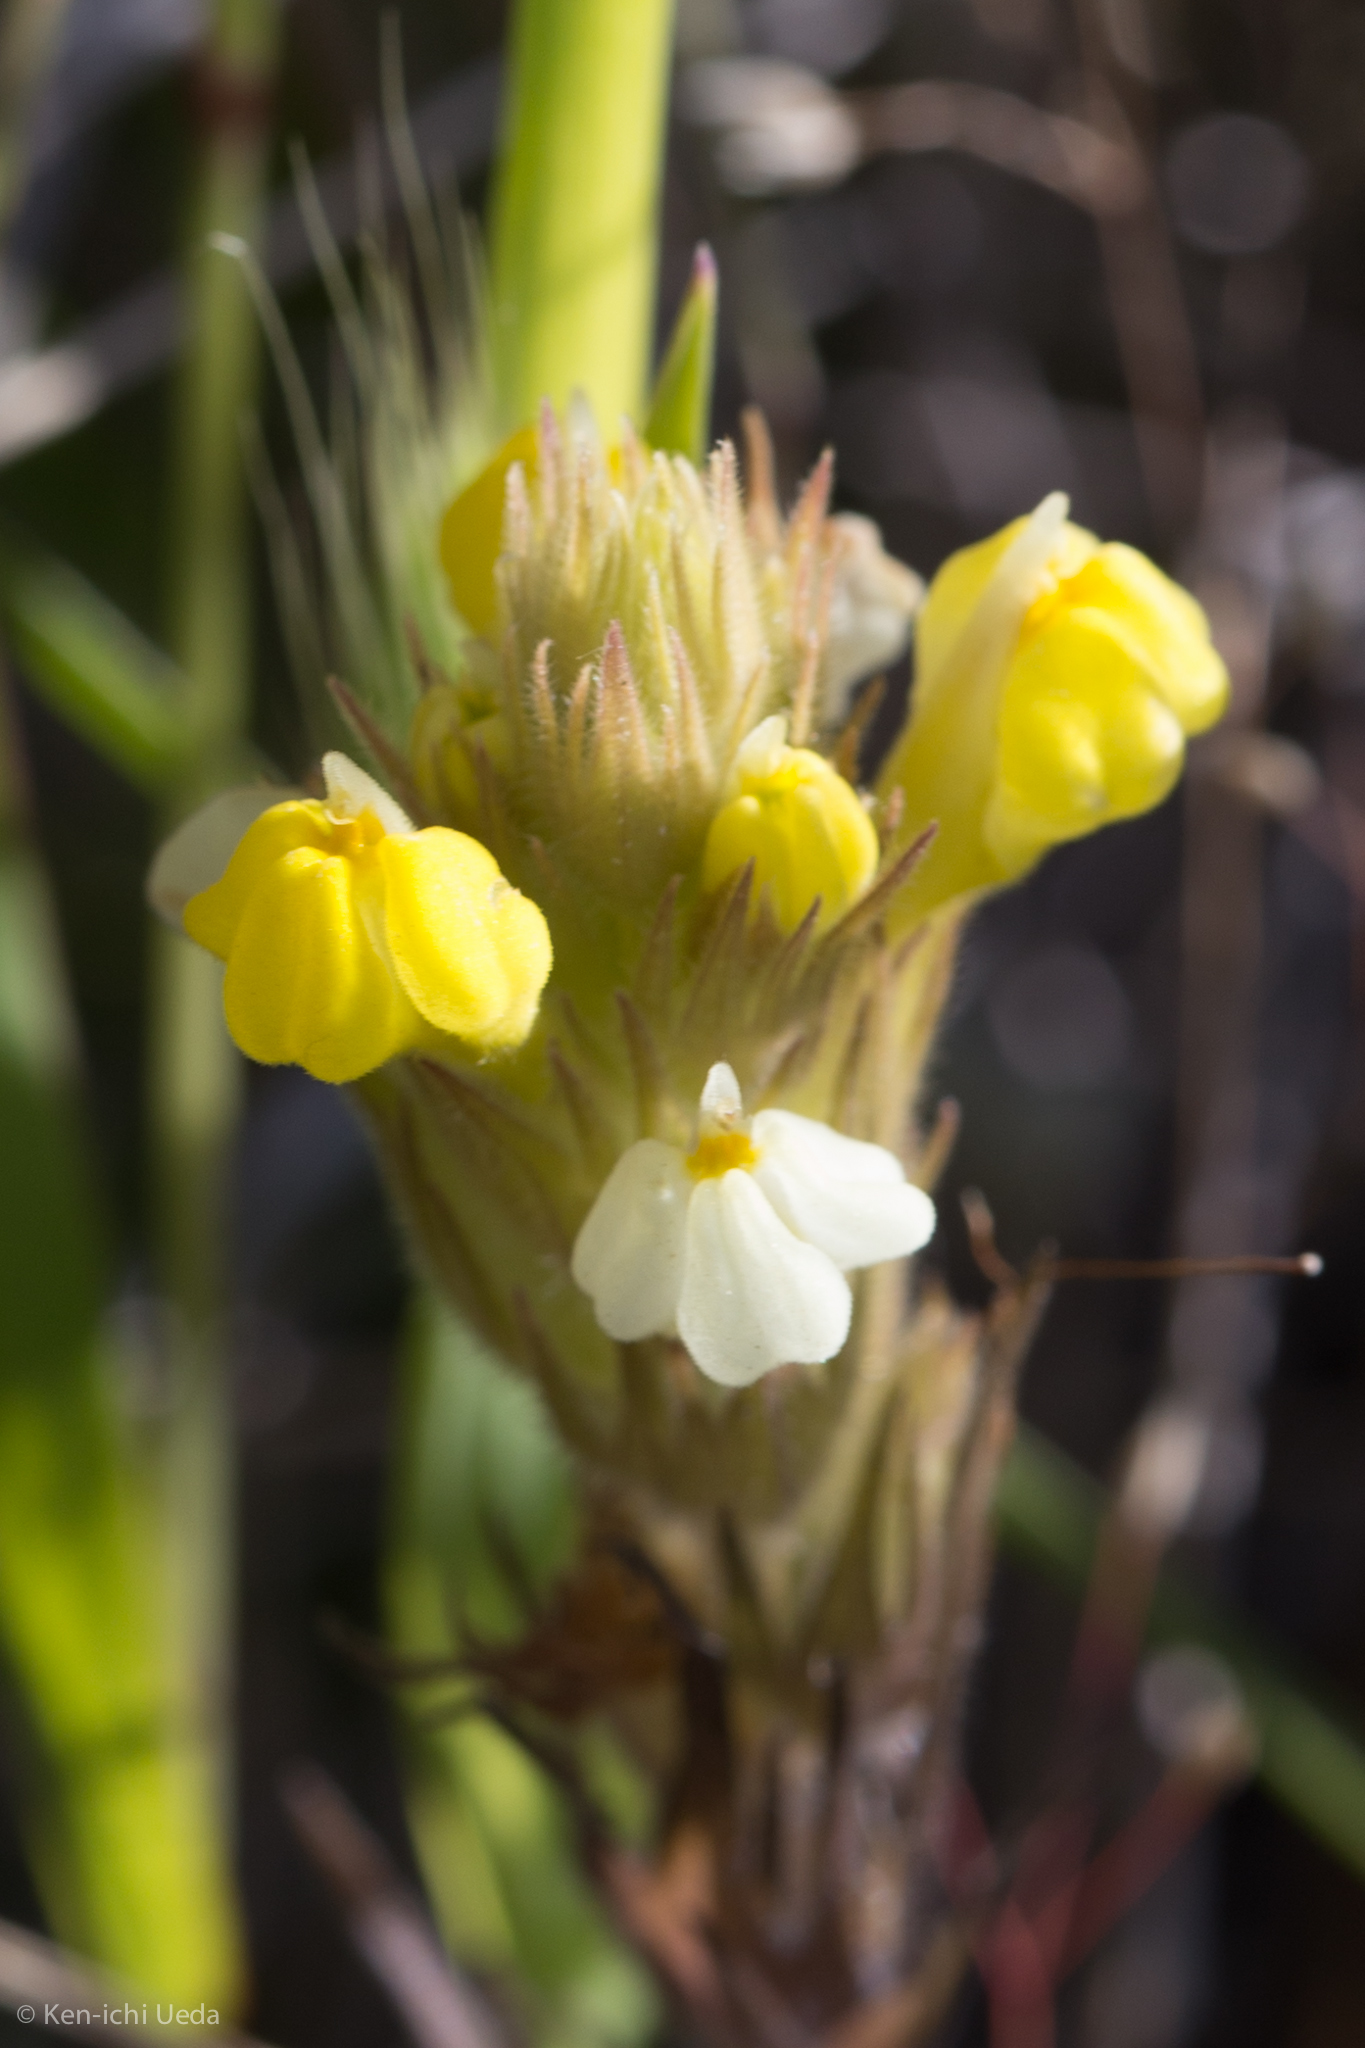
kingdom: Plantae
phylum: Tracheophyta
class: Magnoliopsida
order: Lamiales
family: Orobanchaceae
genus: Castilleja
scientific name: Castilleja rubicundula
